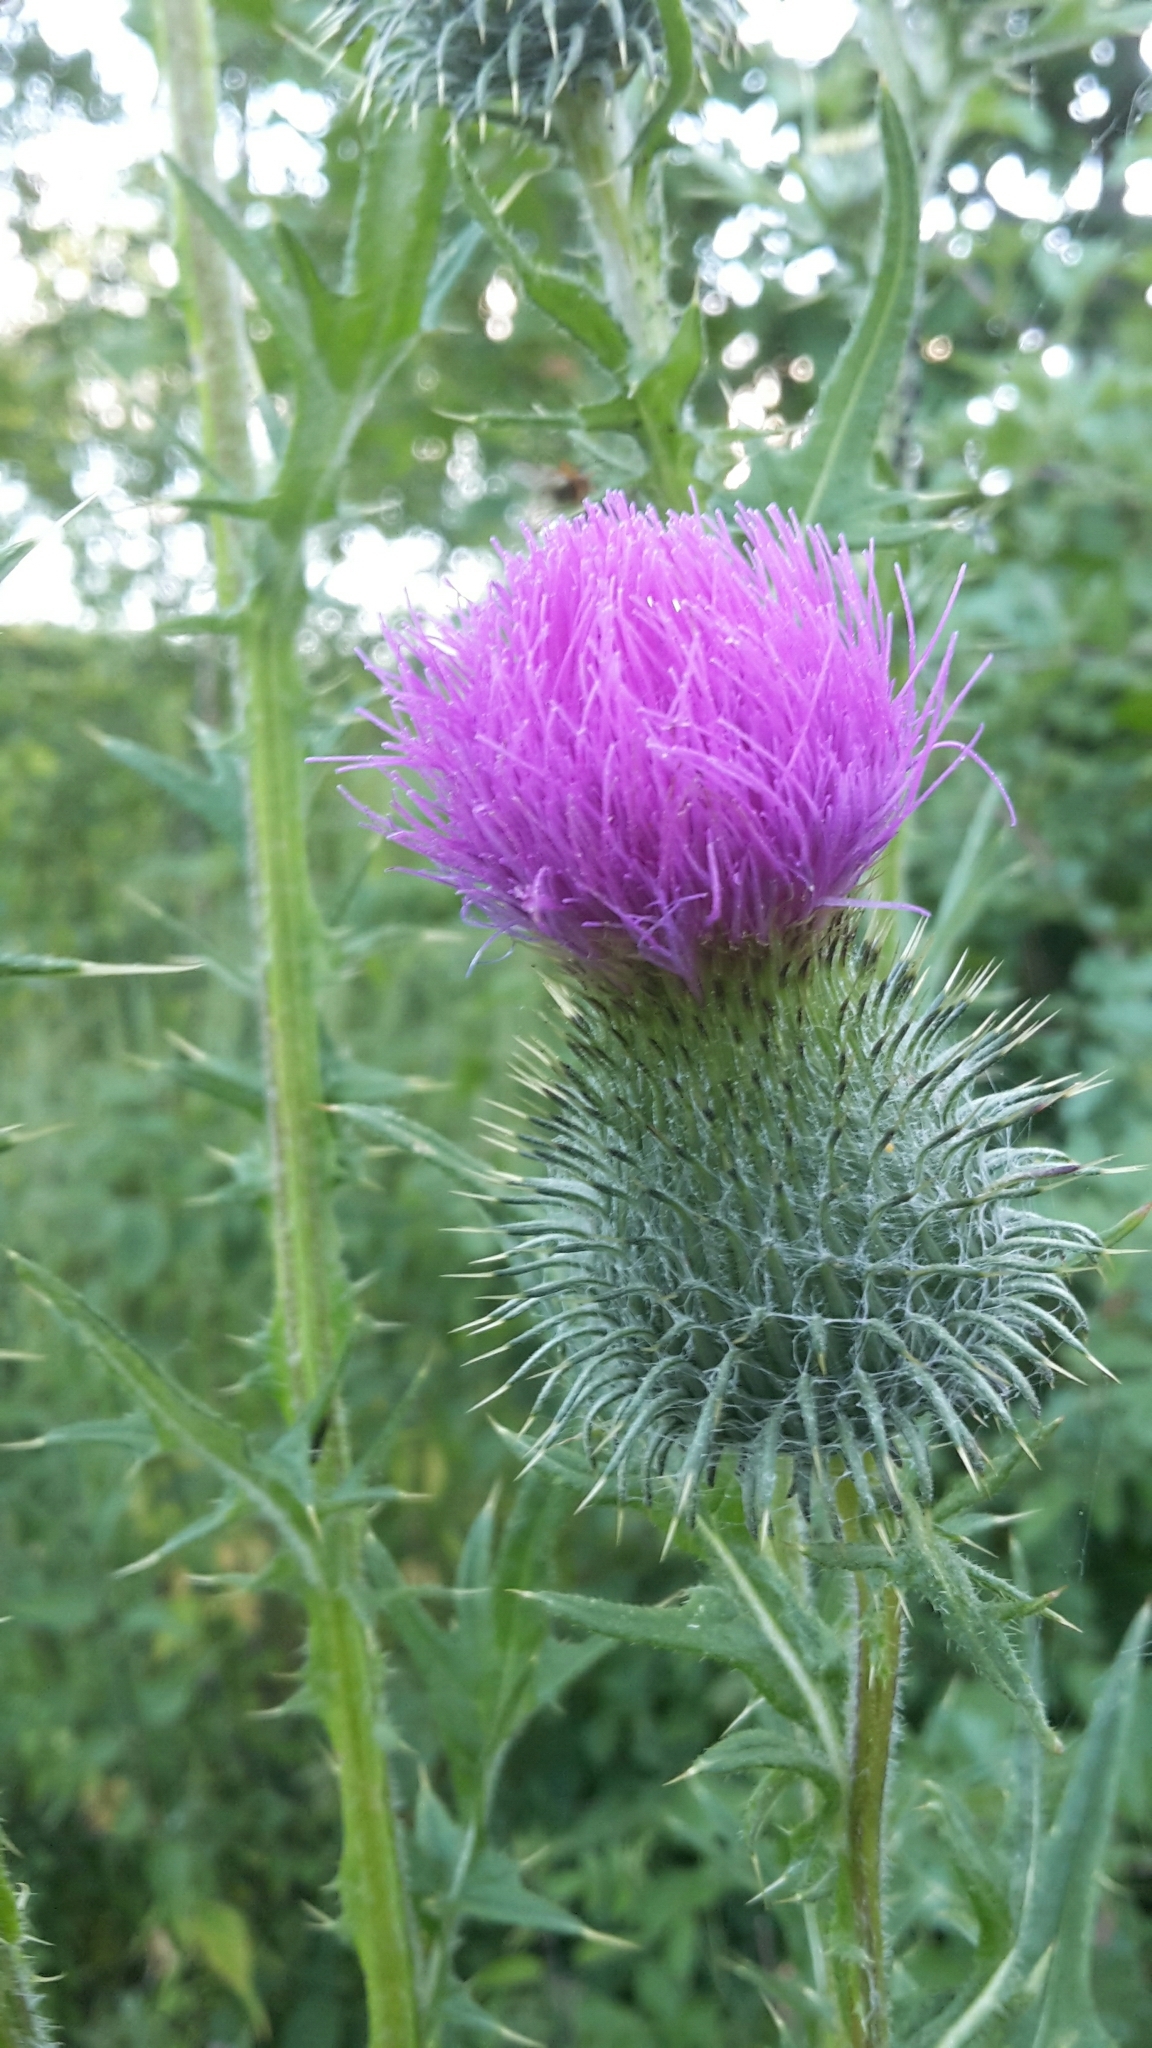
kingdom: Plantae
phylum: Tracheophyta
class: Magnoliopsida
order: Asterales
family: Asteraceae
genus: Cirsium
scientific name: Cirsium vulgare
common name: Bull thistle
